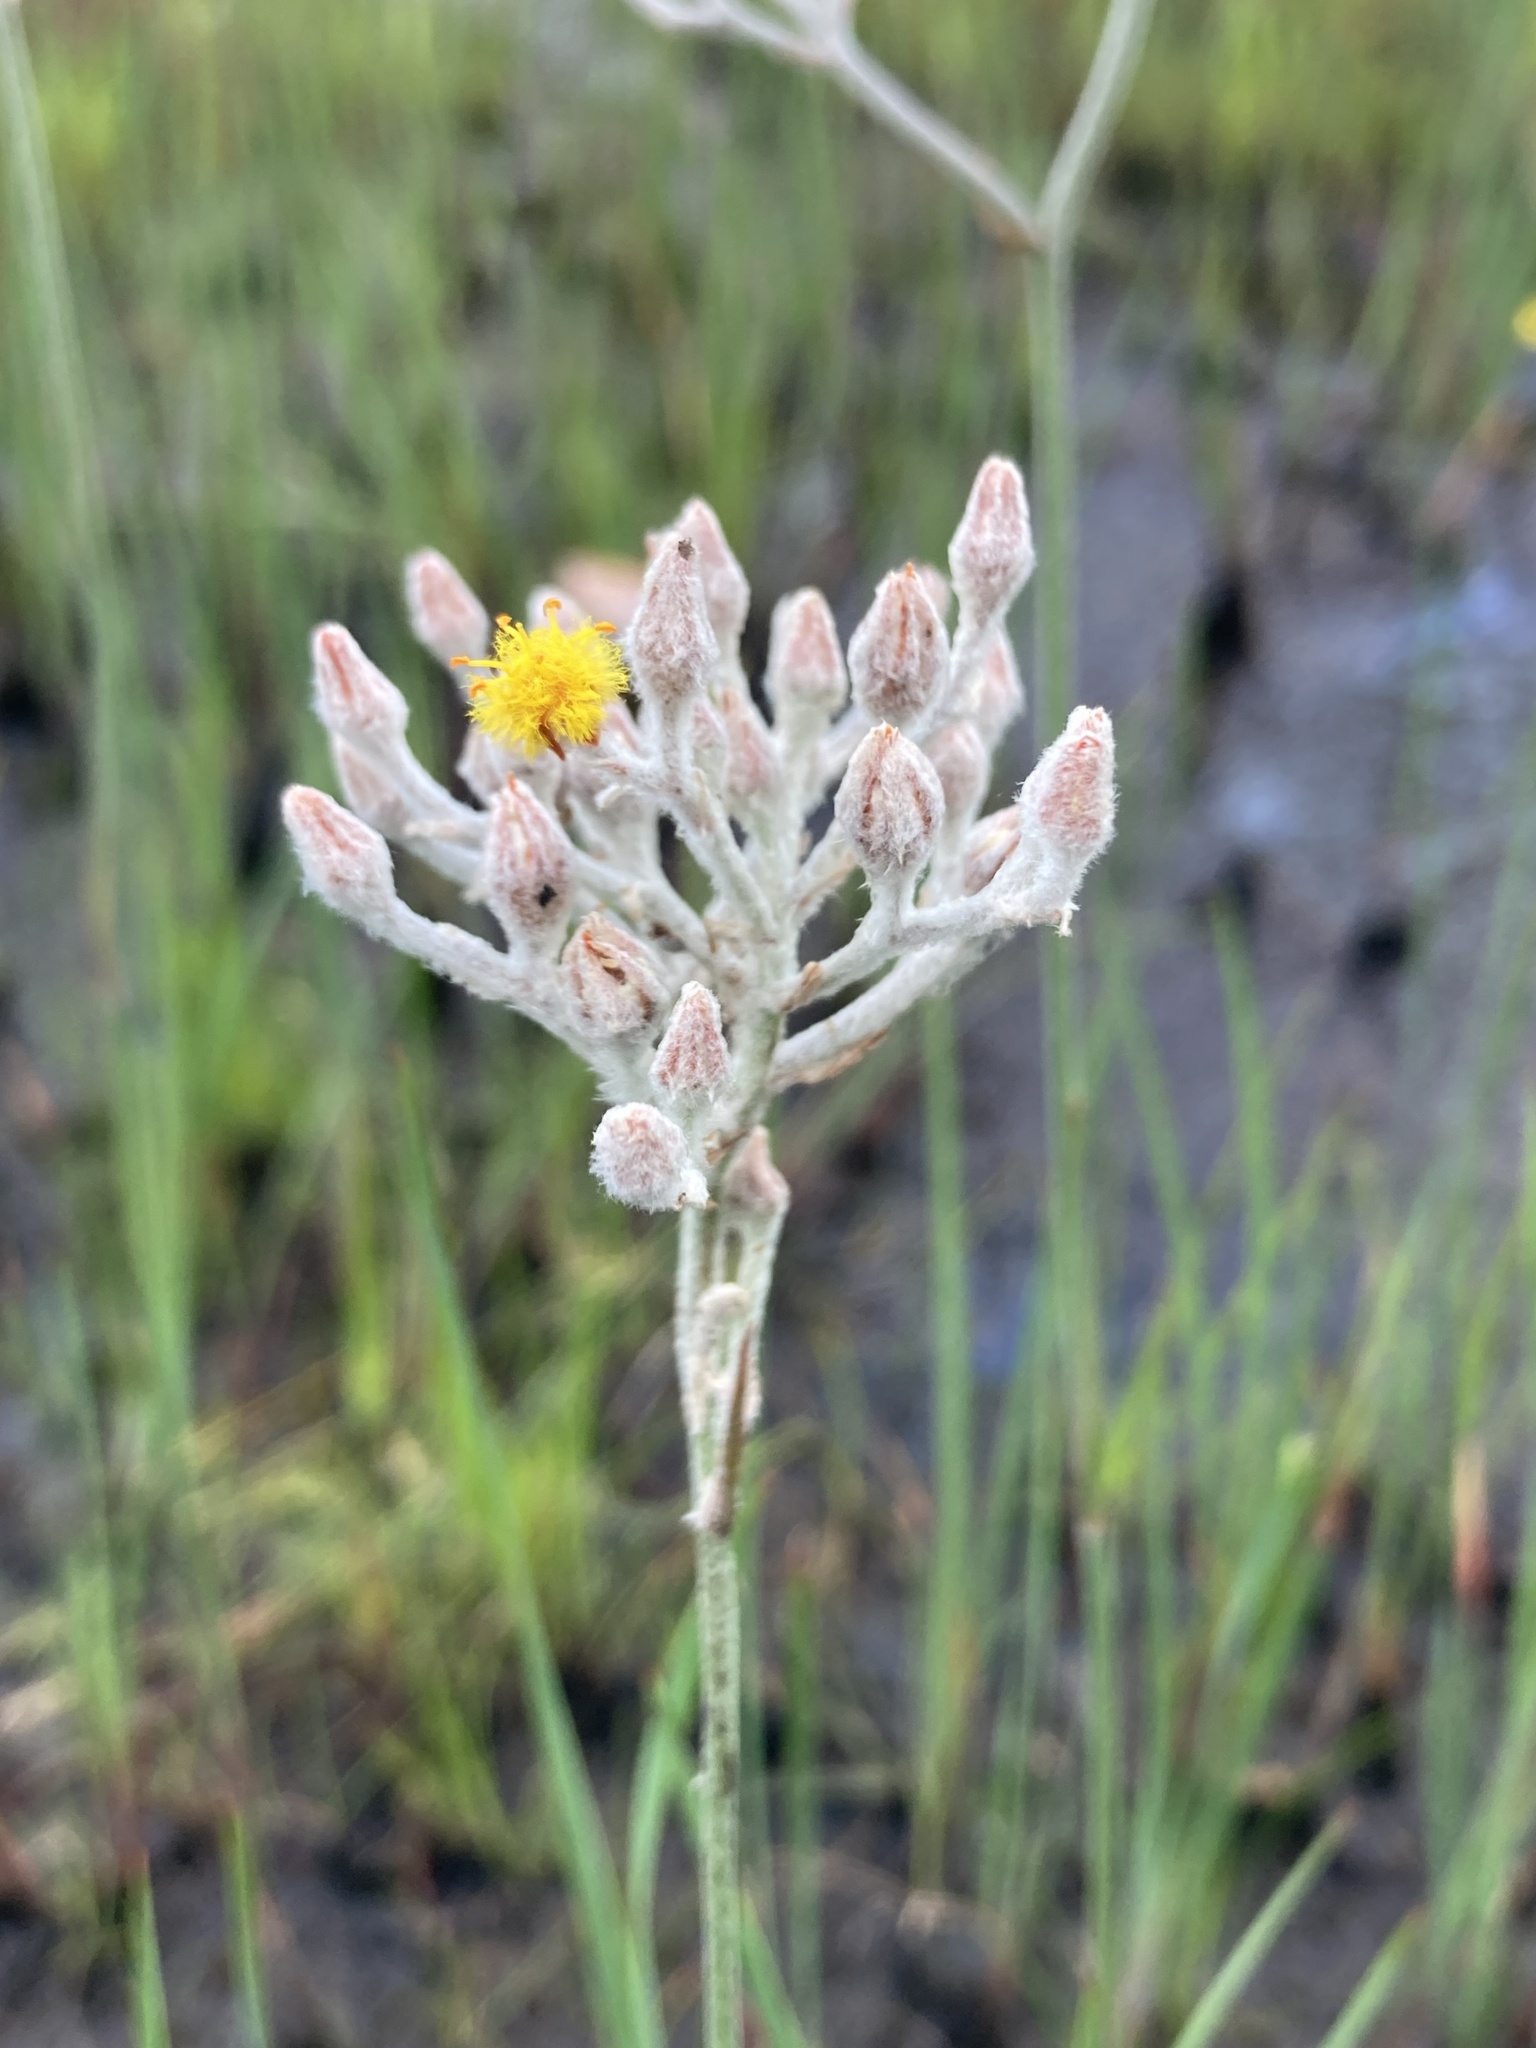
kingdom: Plantae
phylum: Tracheophyta
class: Liliopsida
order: Dioscoreales
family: Nartheciaceae
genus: Lophiola
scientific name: Lophiola aurea
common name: Golden-crest
